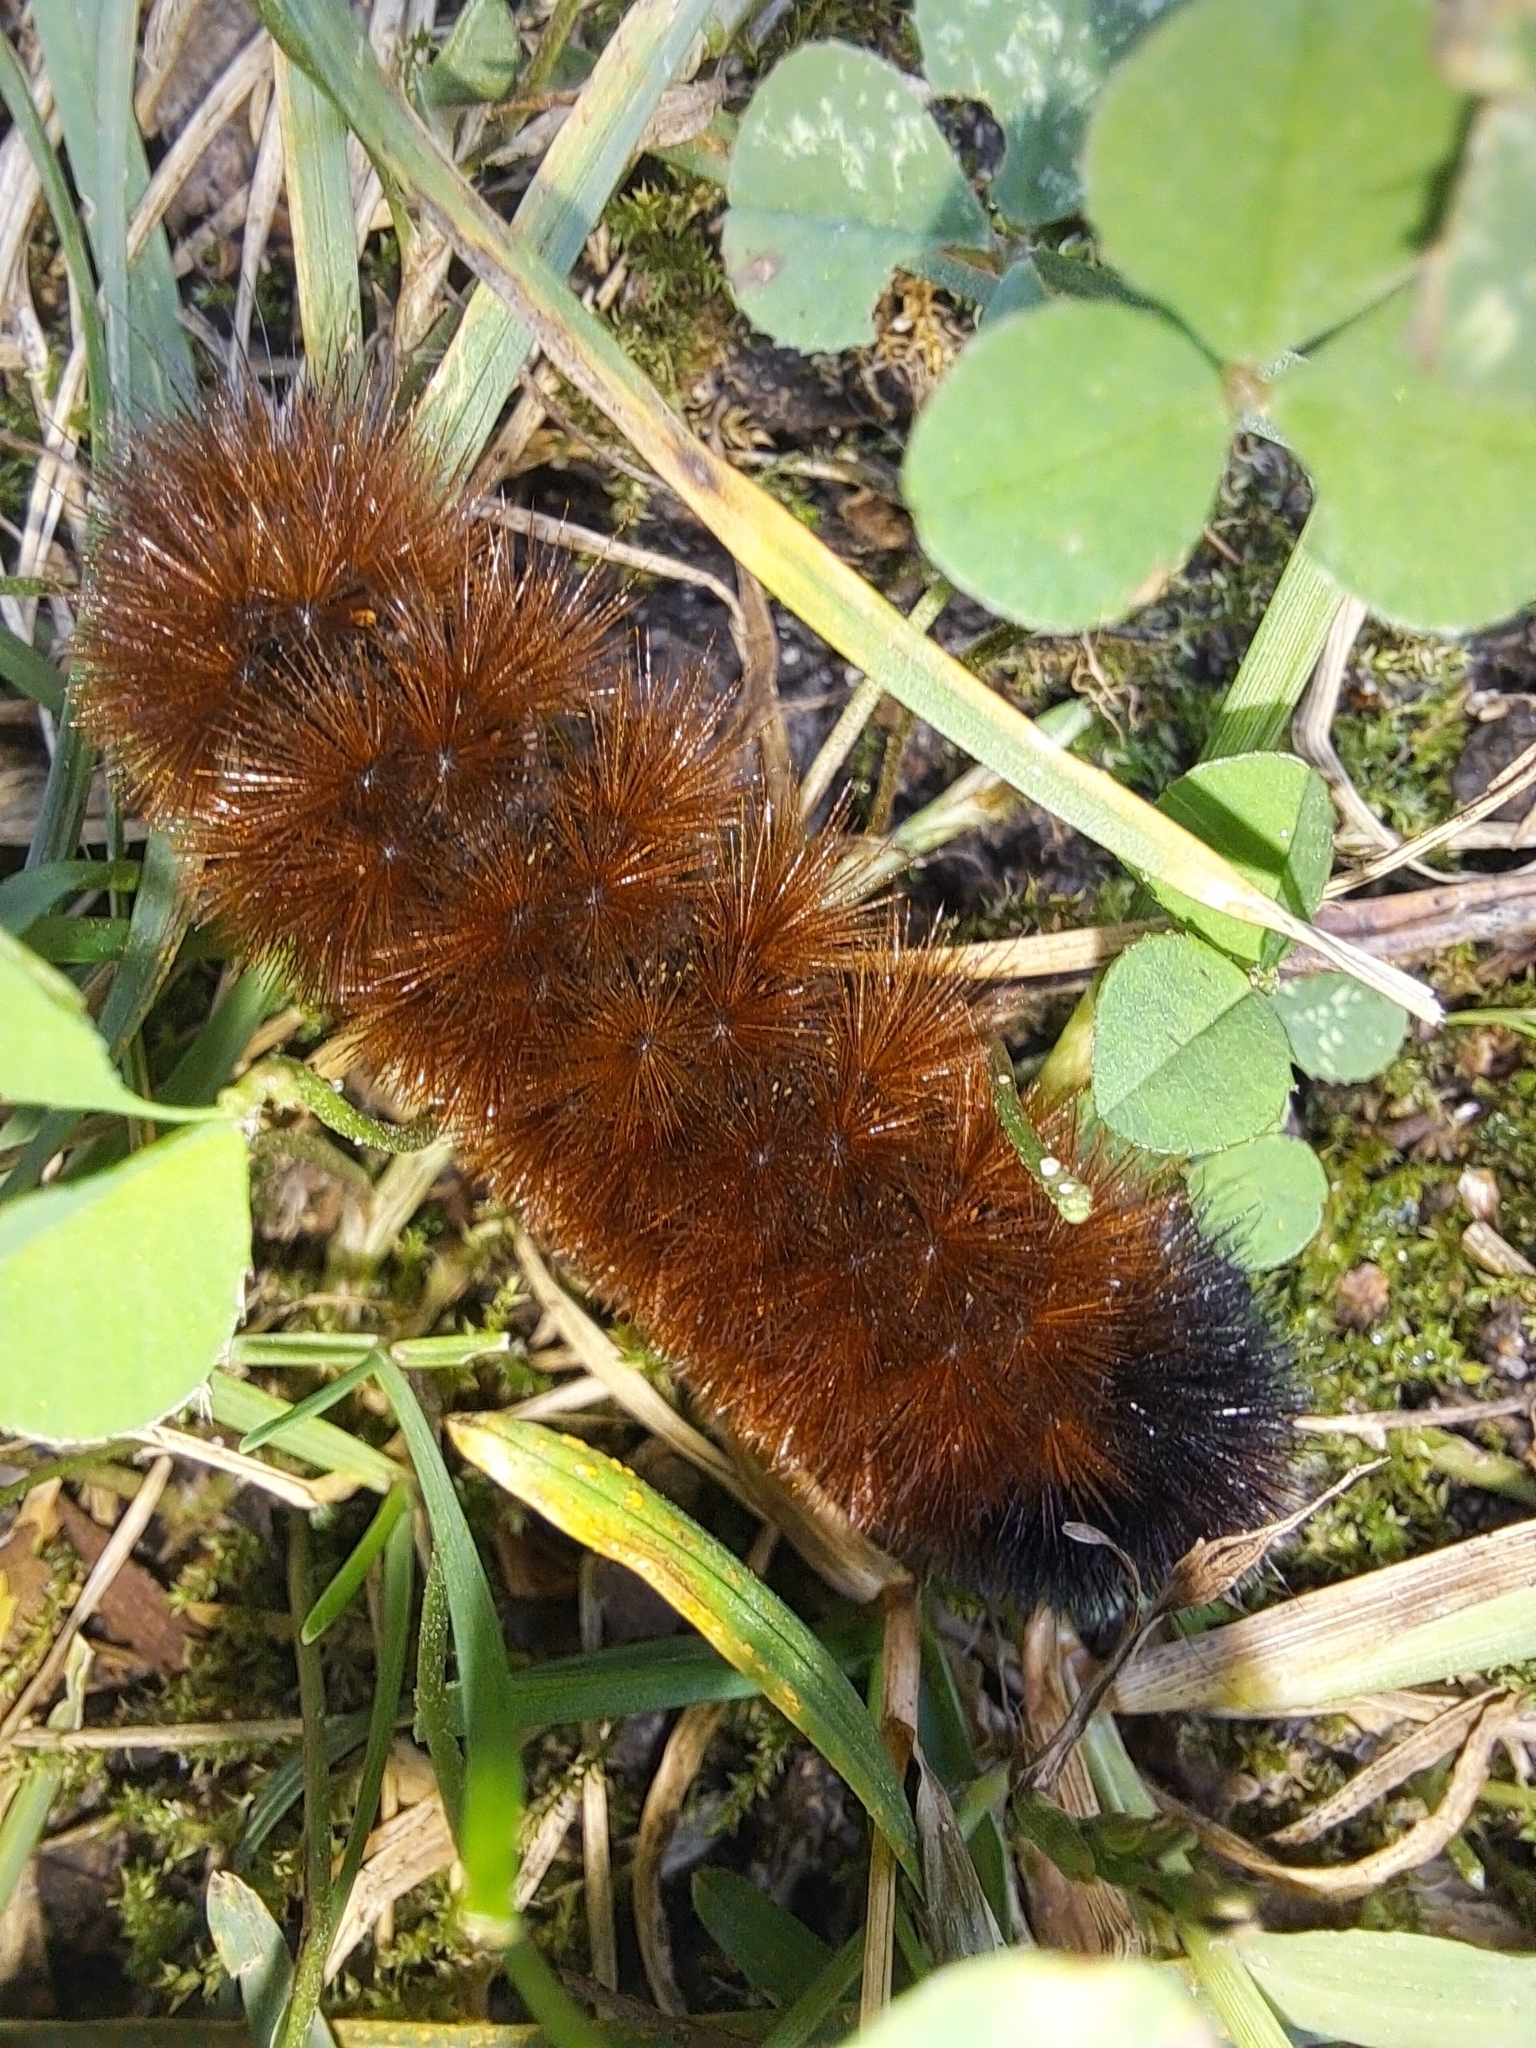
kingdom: Animalia
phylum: Arthropoda
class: Insecta
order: Lepidoptera
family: Erebidae
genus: Pyrrharctia
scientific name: Pyrrharctia isabella
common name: Isabella tiger moth
